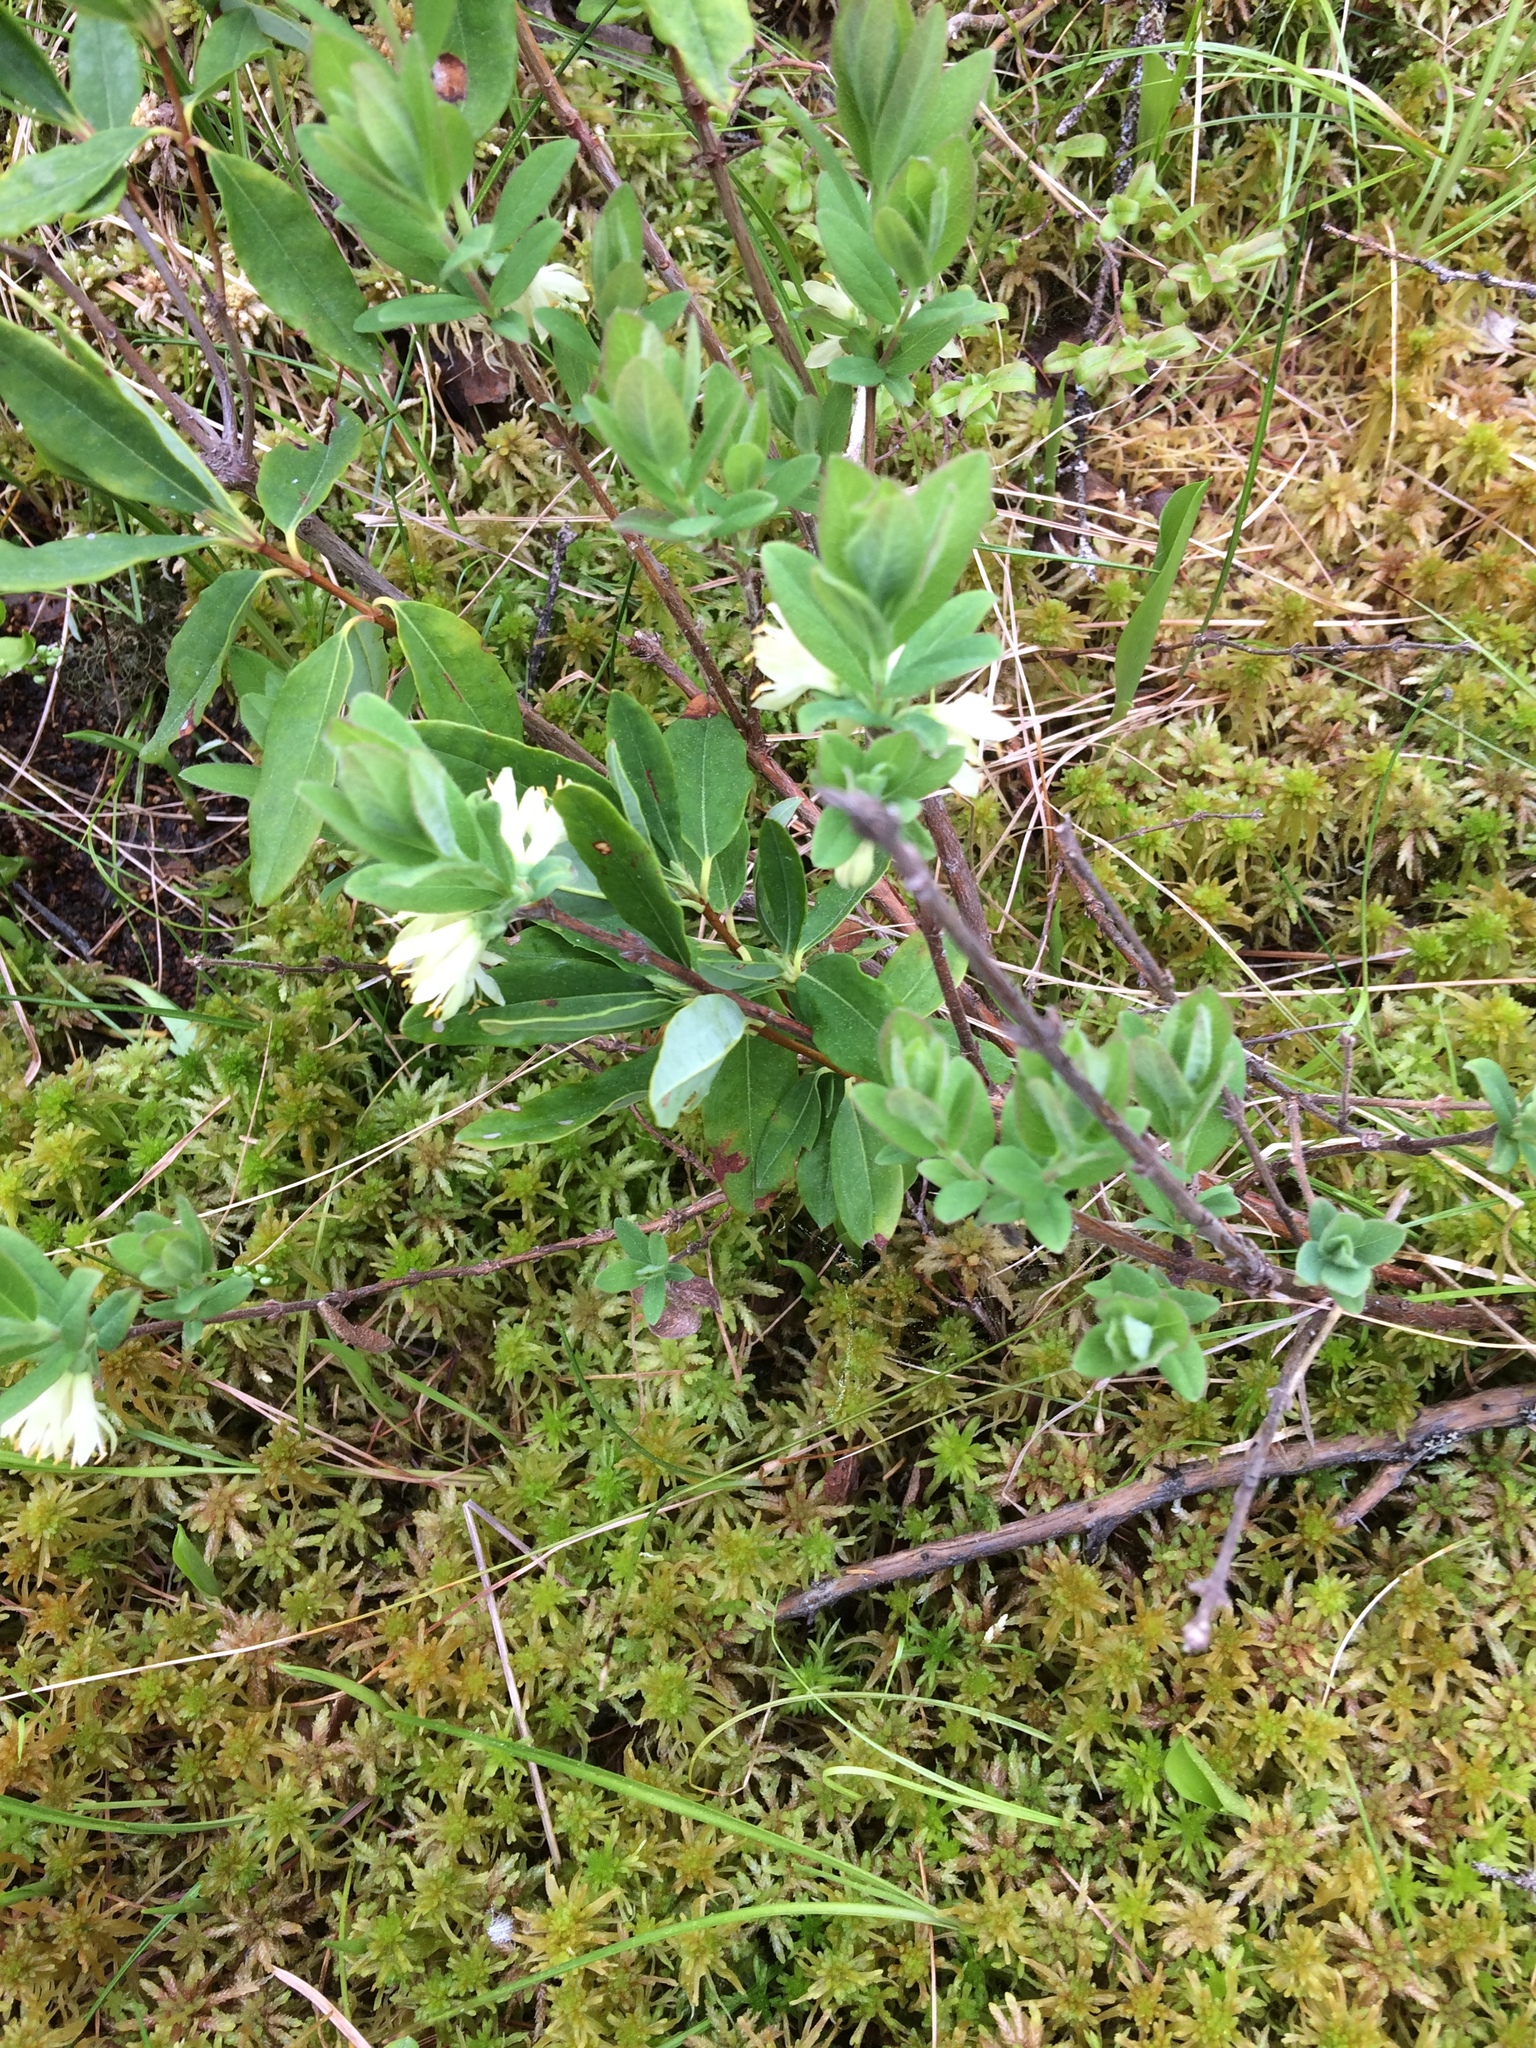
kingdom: Plantae
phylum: Tracheophyta
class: Magnoliopsida
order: Dipsacales
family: Caprifoliaceae
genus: Lonicera
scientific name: Lonicera villosa
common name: Mountain fly-honeysuckle
